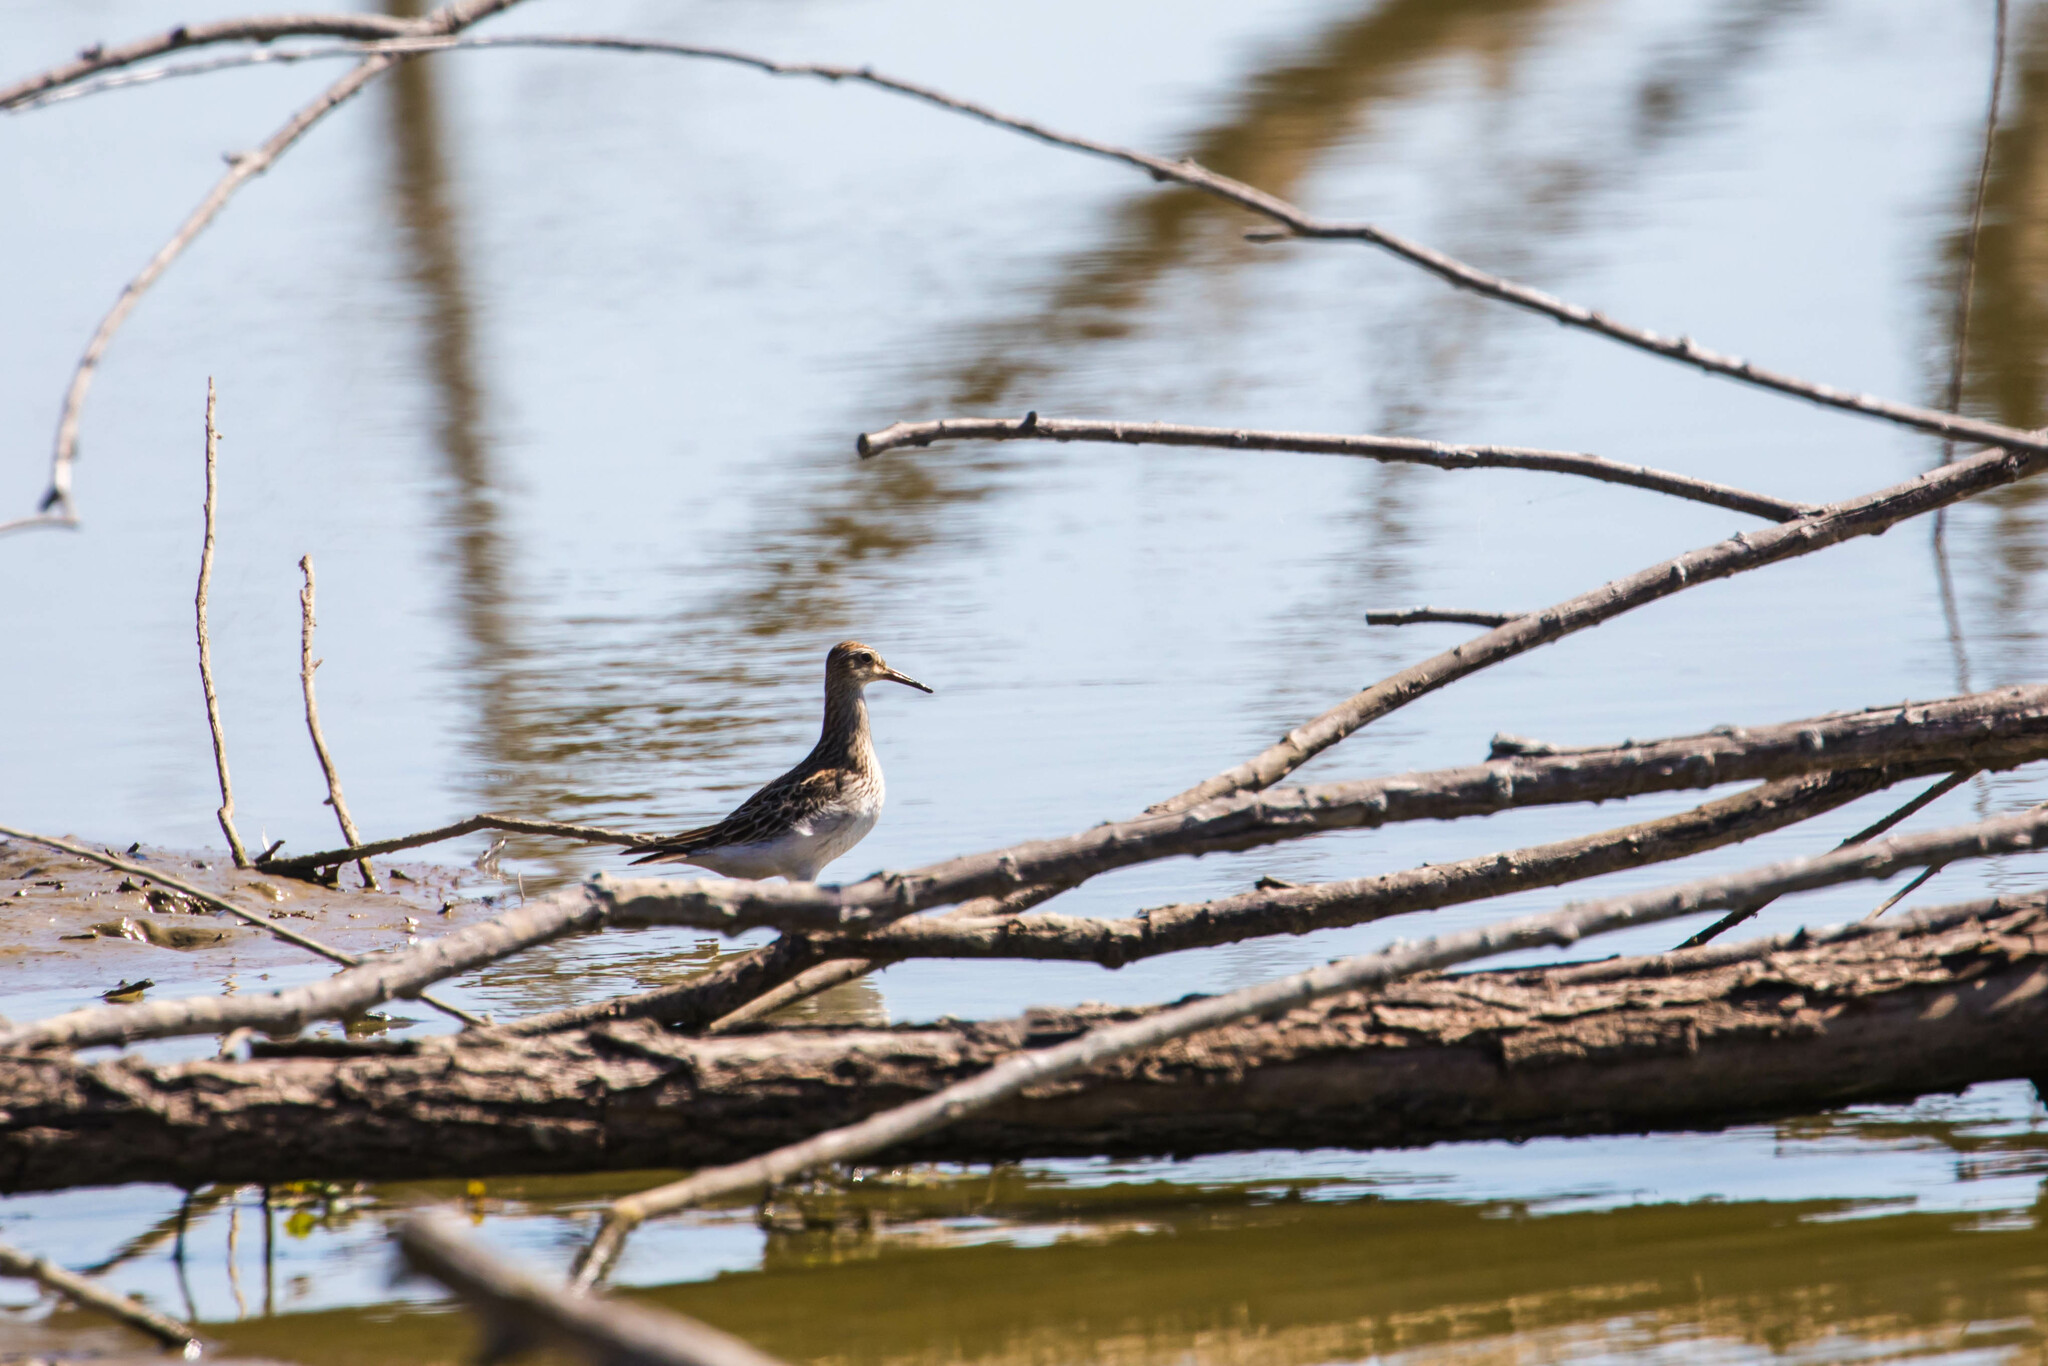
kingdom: Animalia
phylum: Chordata
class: Aves
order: Charadriiformes
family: Scolopacidae
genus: Calidris
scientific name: Calidris melanotos
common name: Pectoral sandpiper
